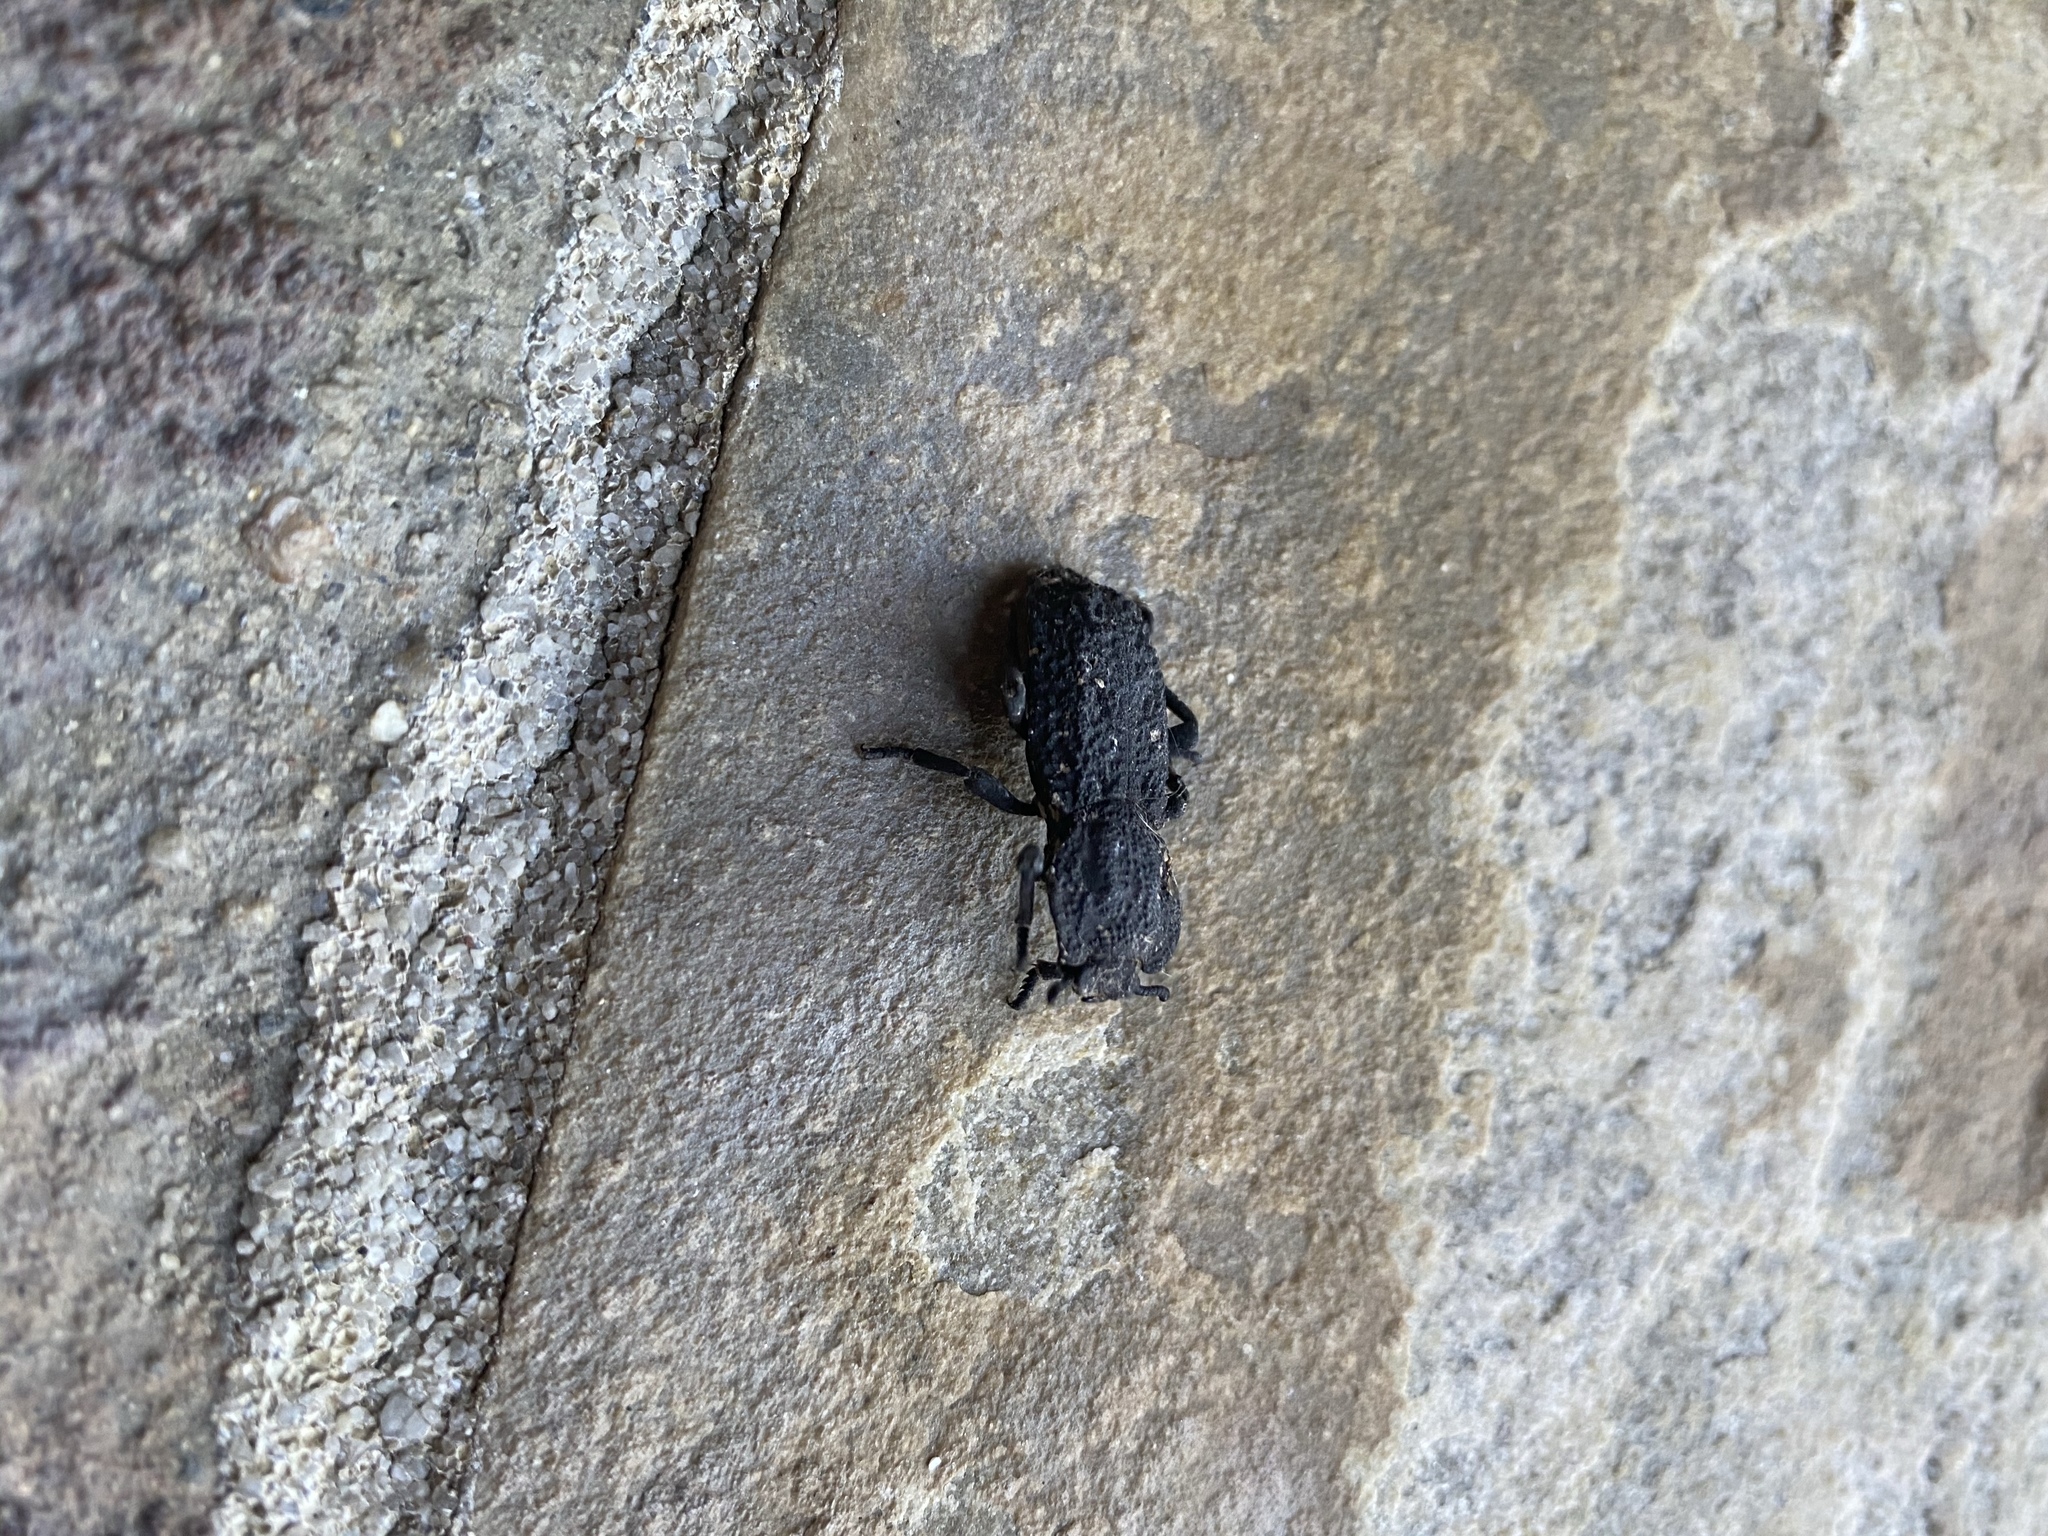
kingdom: Animalia
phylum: Arthropoda
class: Insecta
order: Coleoptera
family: Zopheridae
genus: Phloeodes
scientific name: Phloeodes diabolicus
